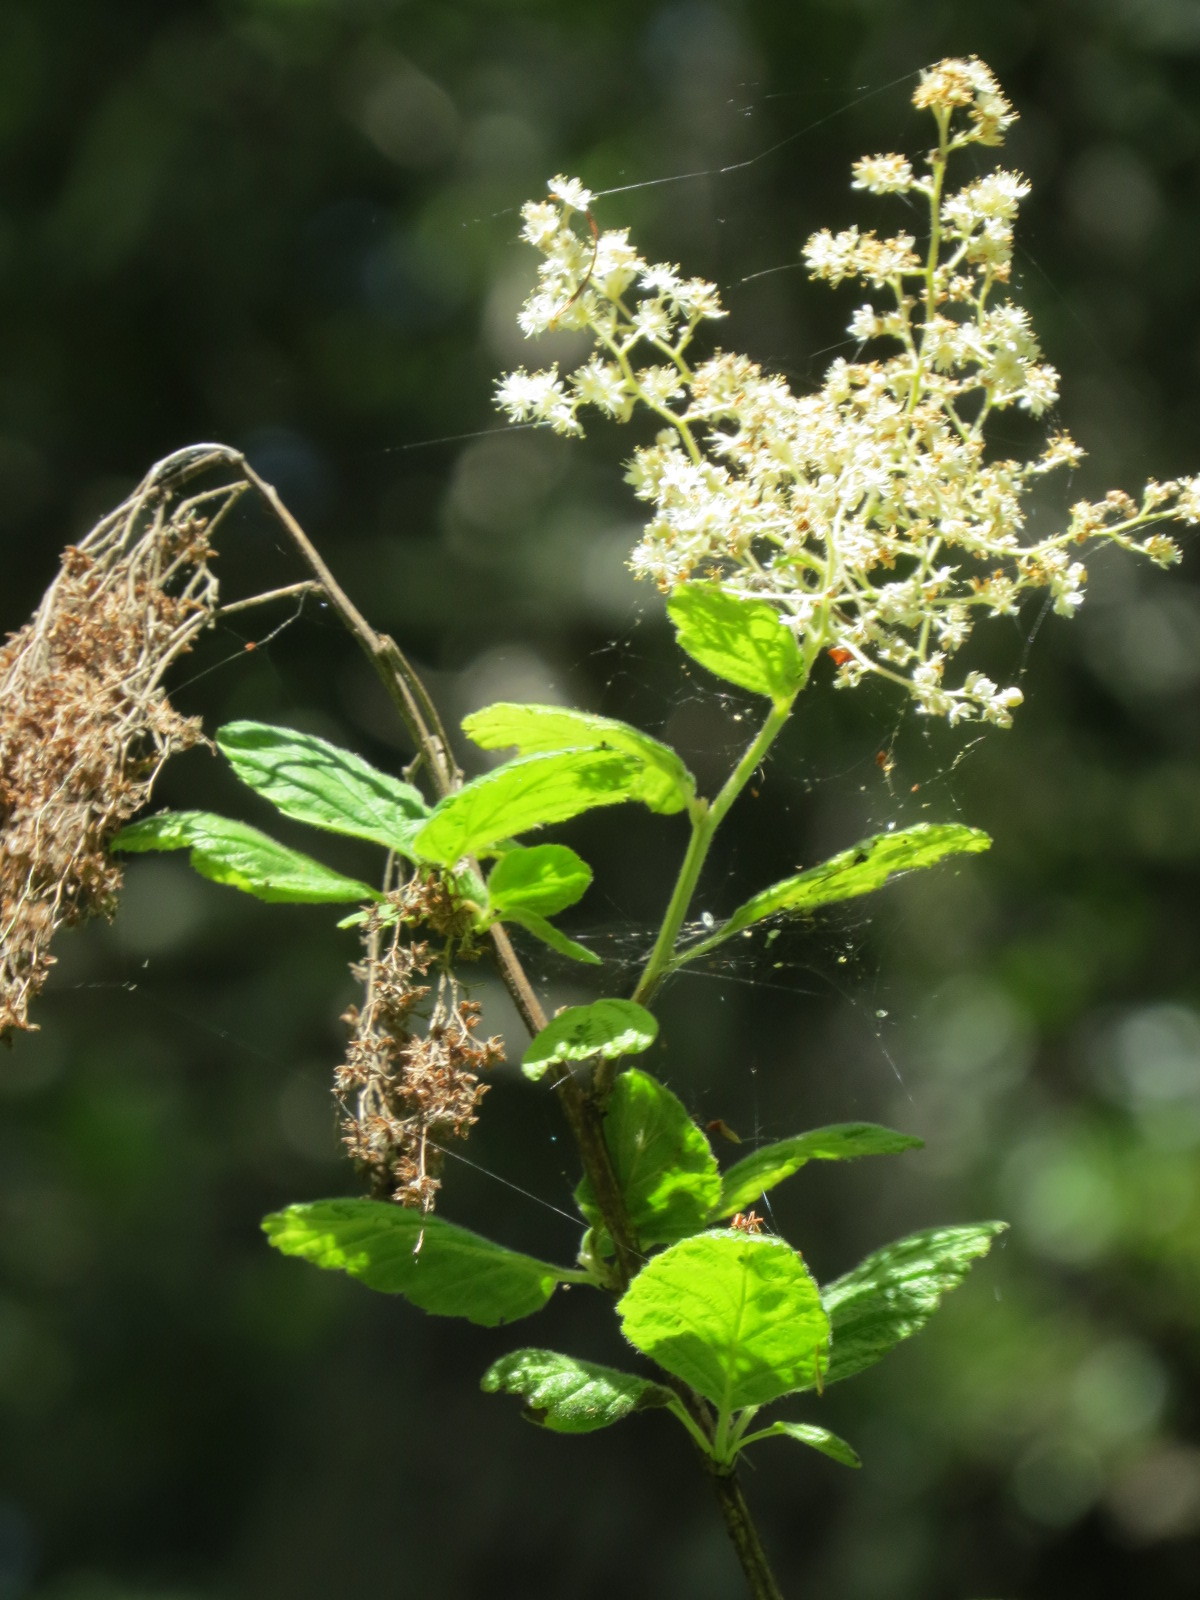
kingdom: Plantae
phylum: Tracheophyta
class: Magnoliopsida
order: Rosales
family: Rosaceae
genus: Holodiscus
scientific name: Holodiscus discolor
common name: Oceanspray
